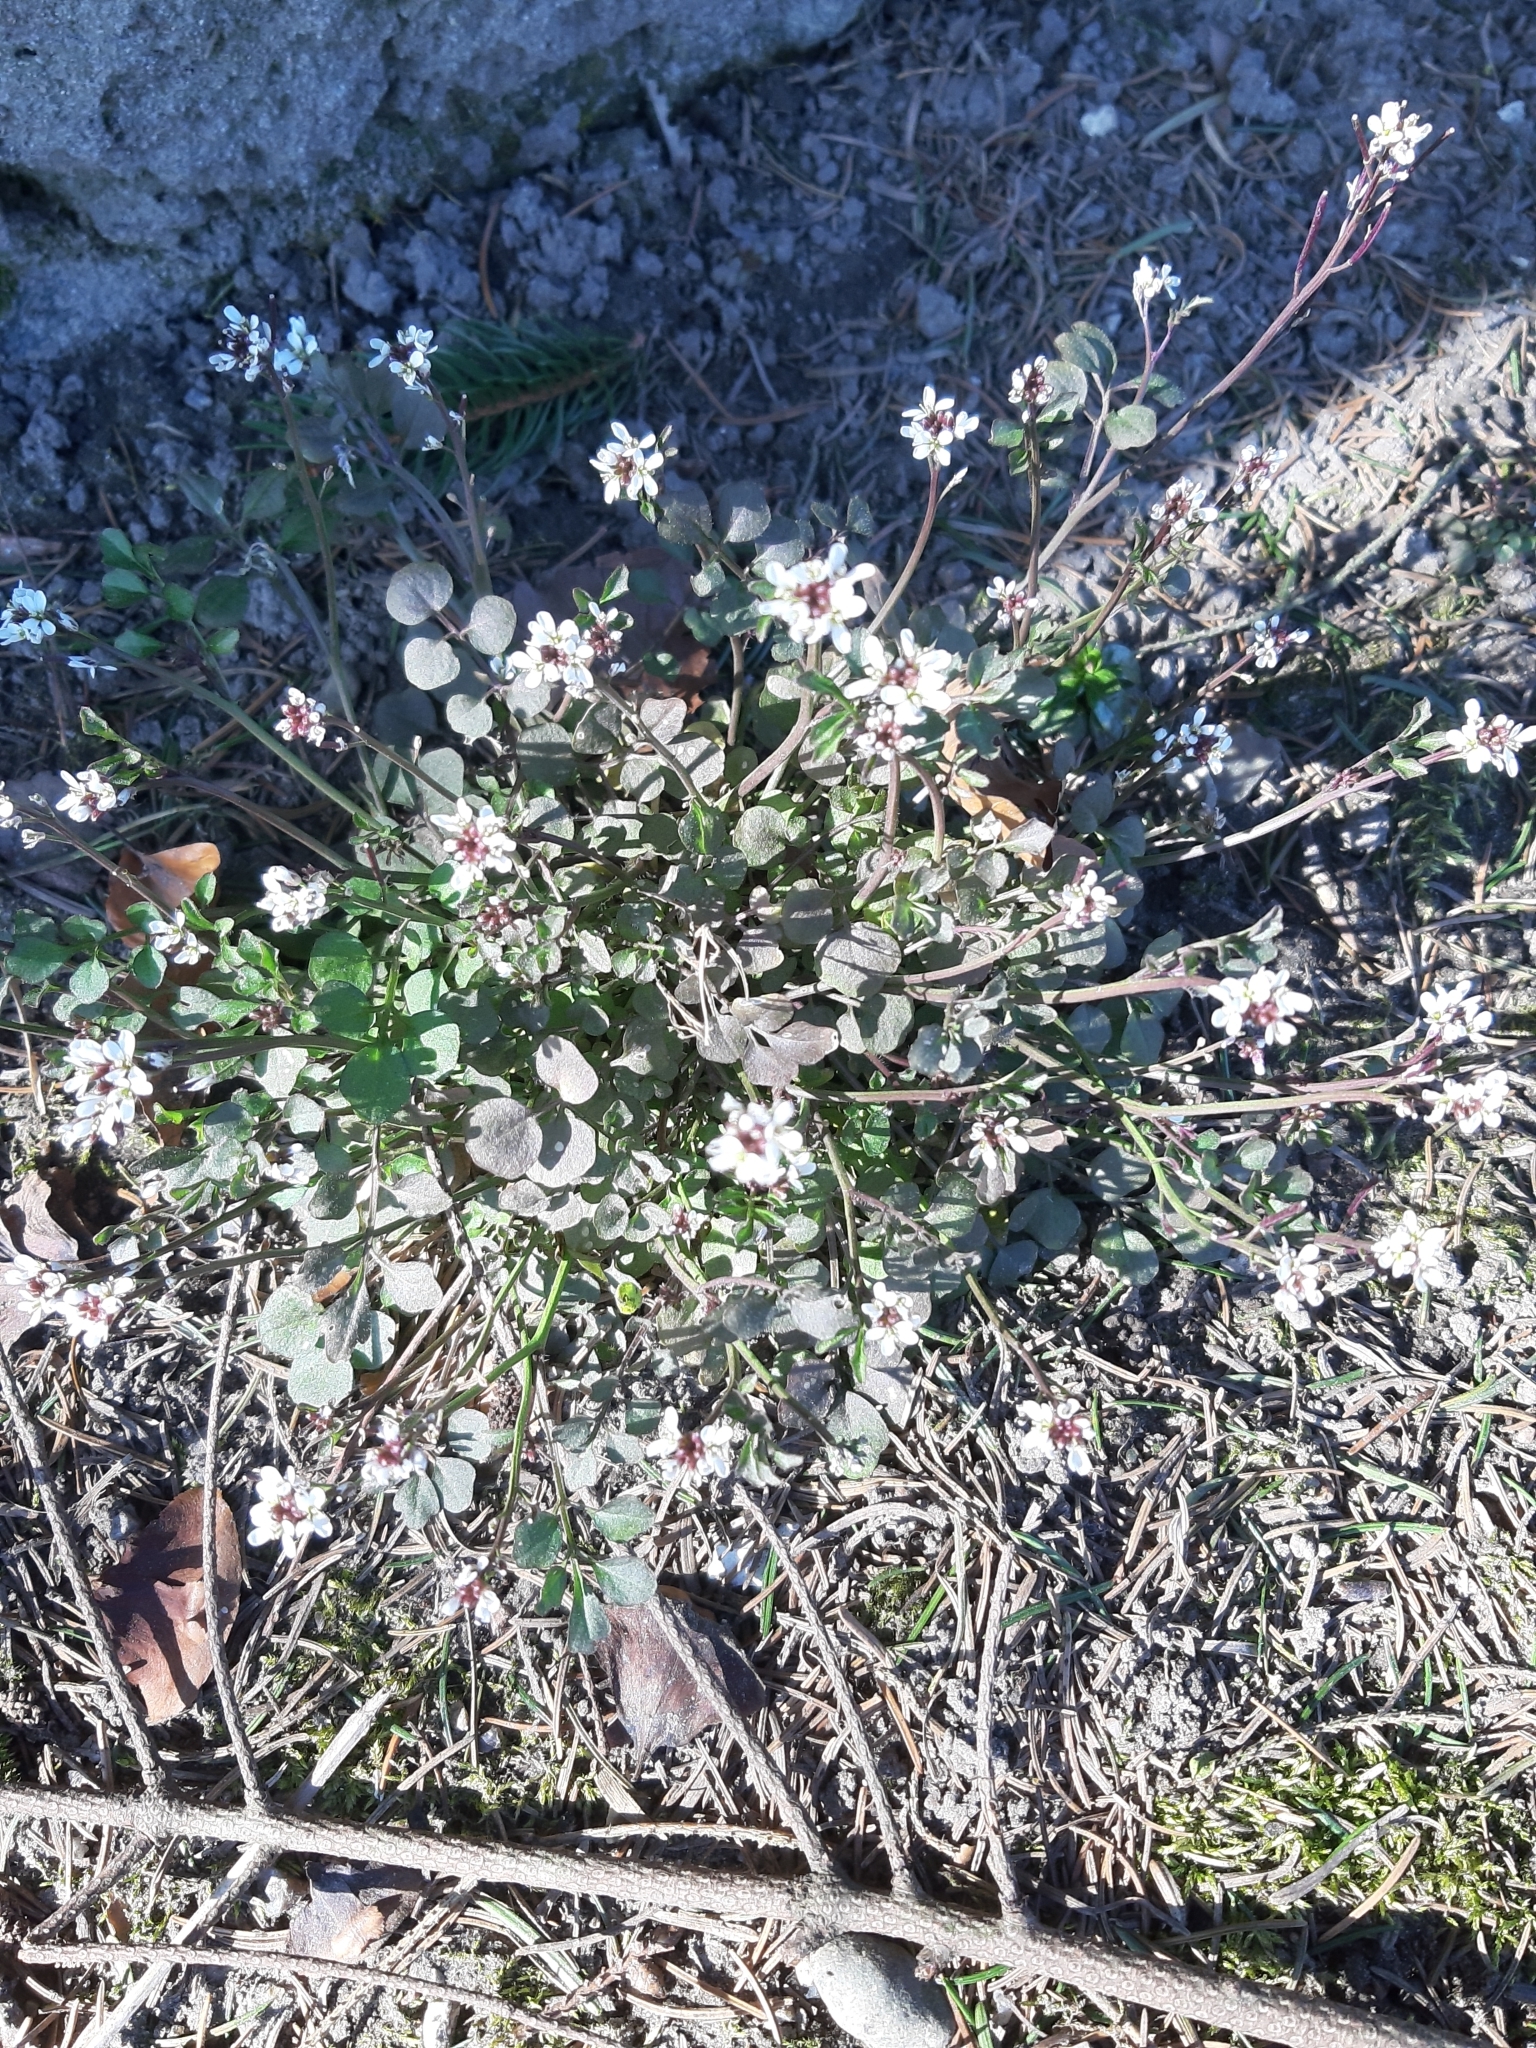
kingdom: Plantae
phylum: Tracheophyta
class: Magnoliopsida
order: Brassicales
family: Brassicaceae
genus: Cardamine
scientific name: Cardamine hirsuta
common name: Hairy bittercress
